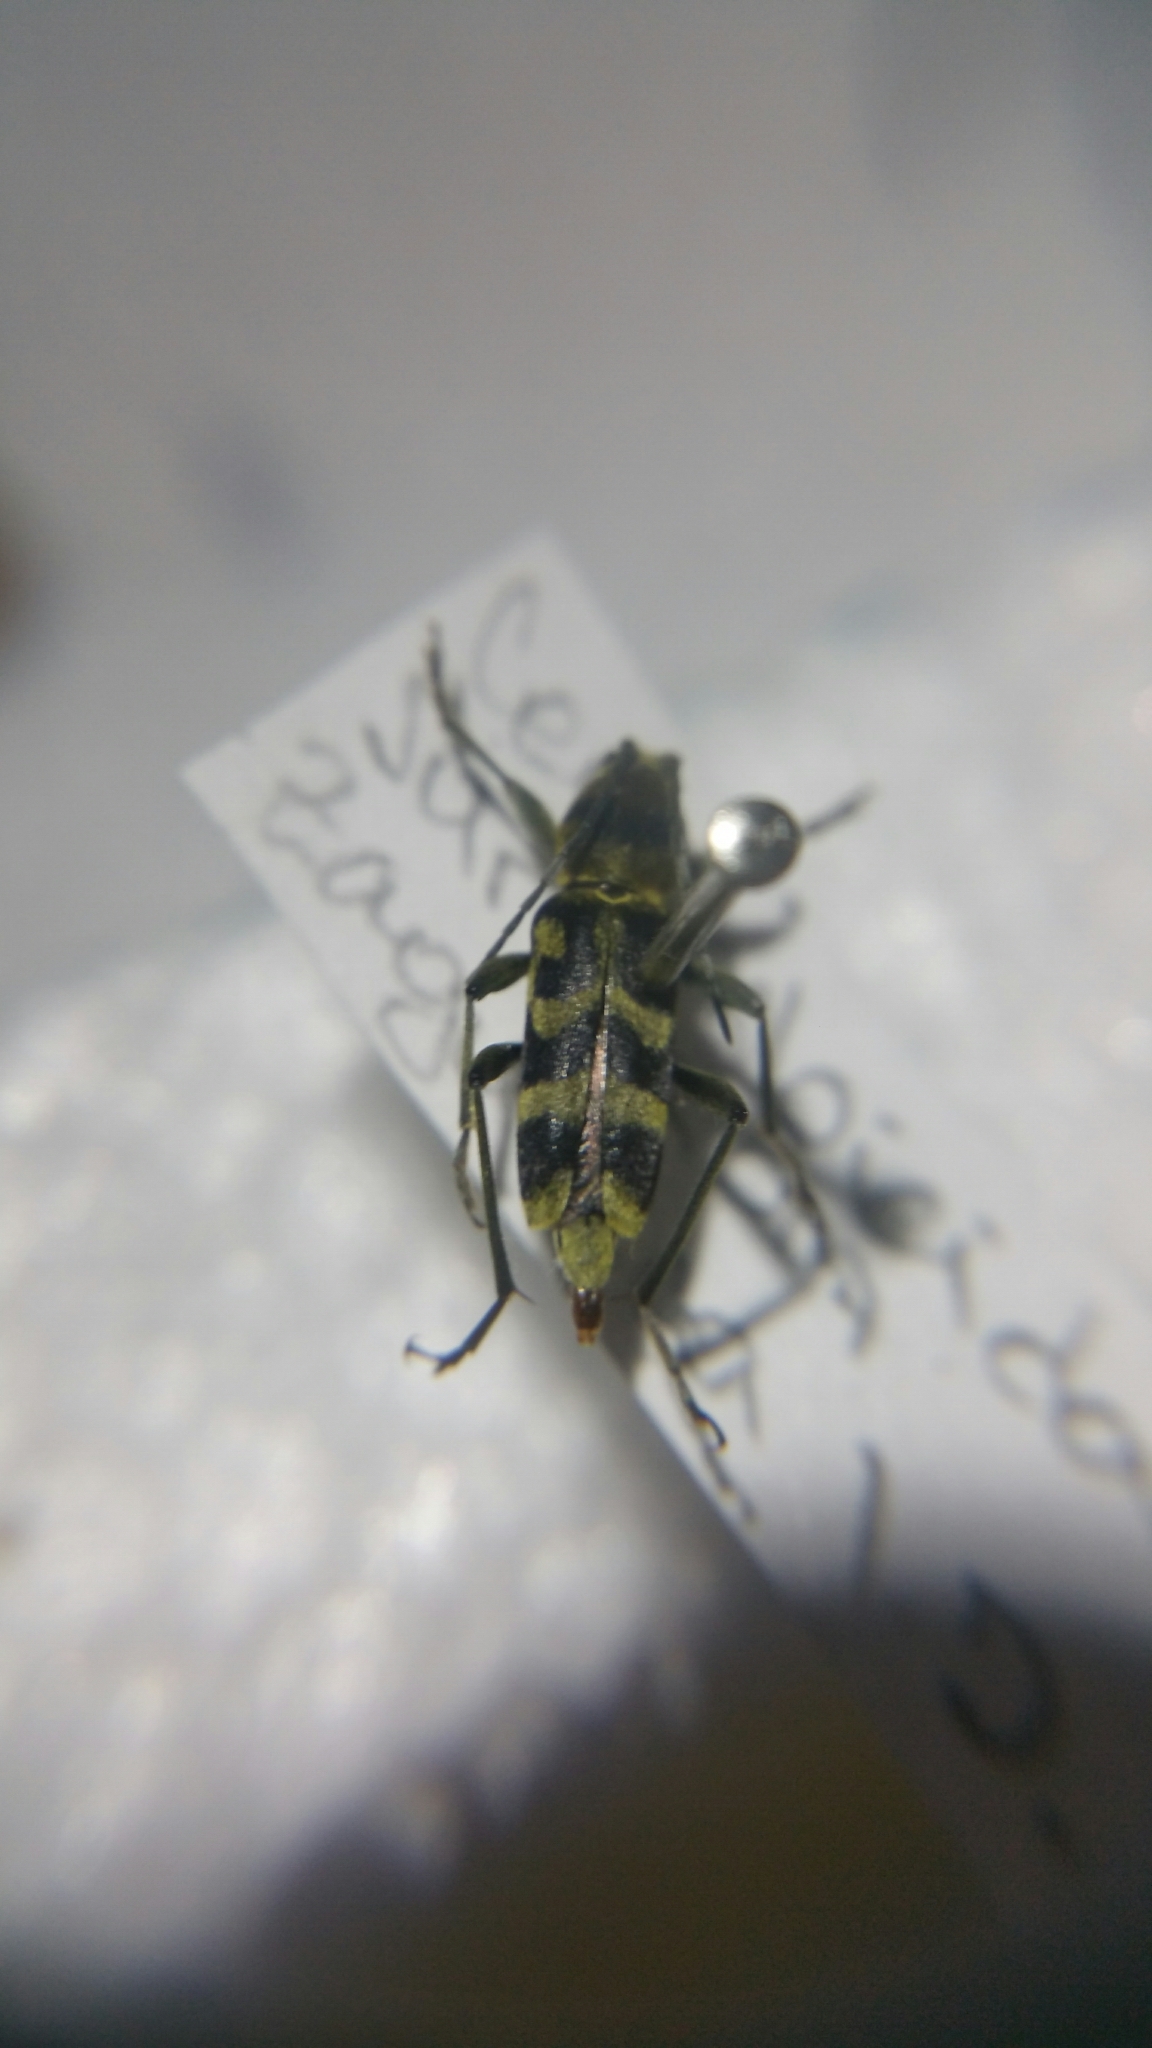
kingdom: Animalia
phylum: Arthropoda
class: Insecta
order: Coleoptera
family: Cerambycidae
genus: Chlorophorus
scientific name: Chlorophorus varius
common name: Grape wood borer
